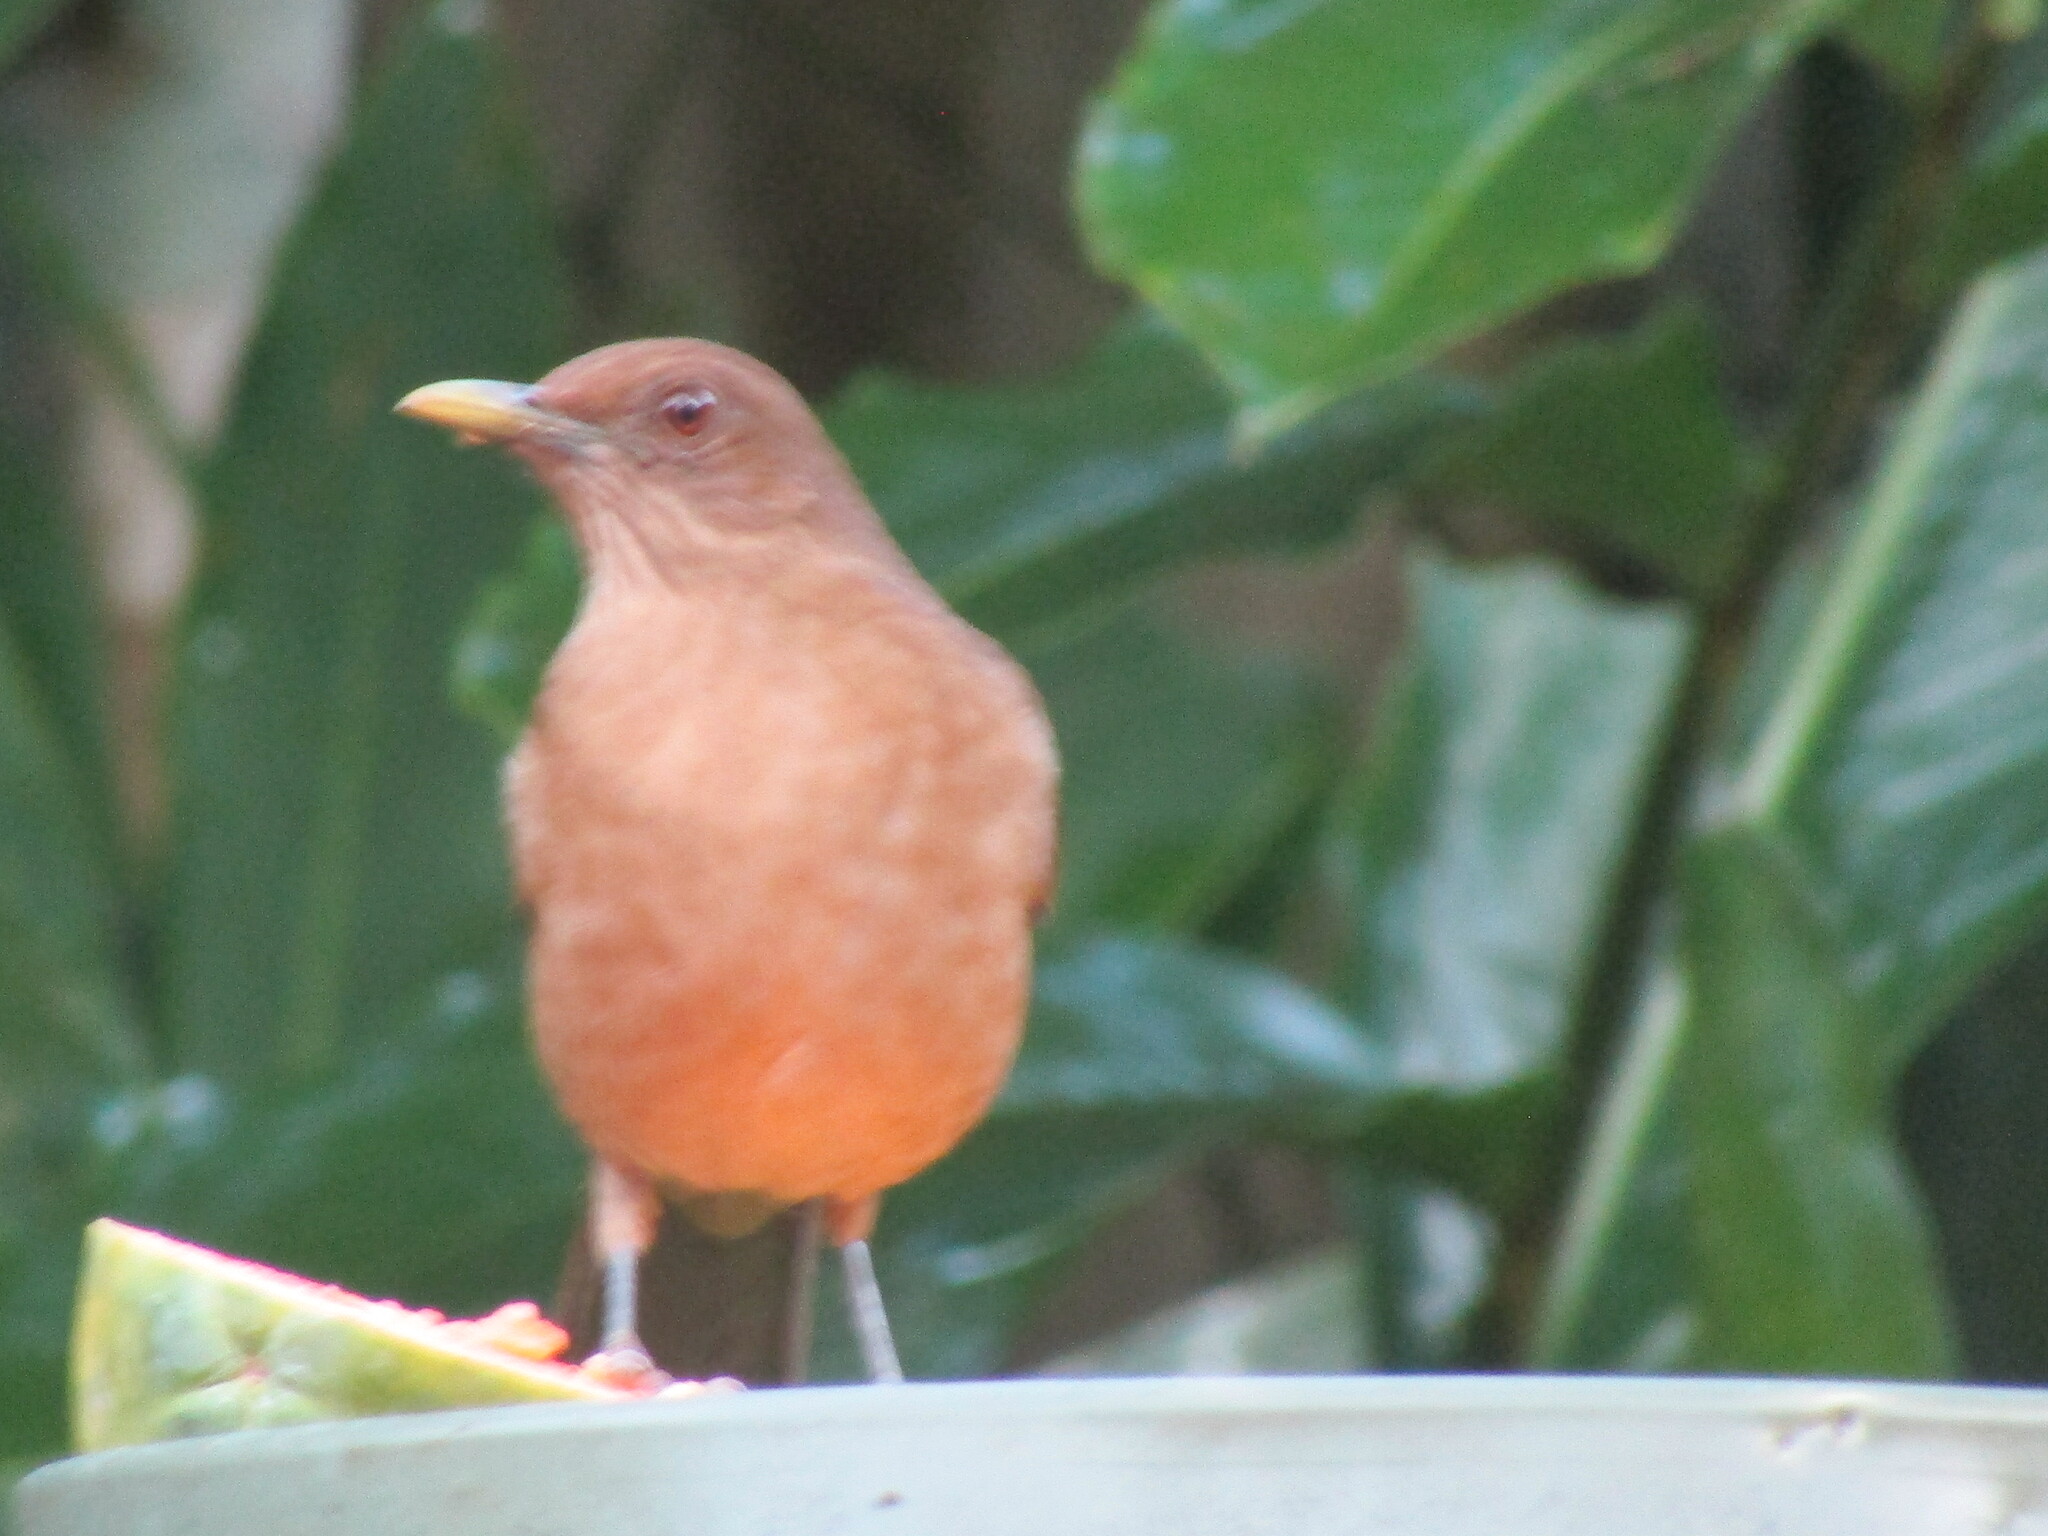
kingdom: Animalia
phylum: Chordata
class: Aves
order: Passeriformes
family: Turdidae
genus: Turdus
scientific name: Turdus grayi
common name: Clay-colored thrush
